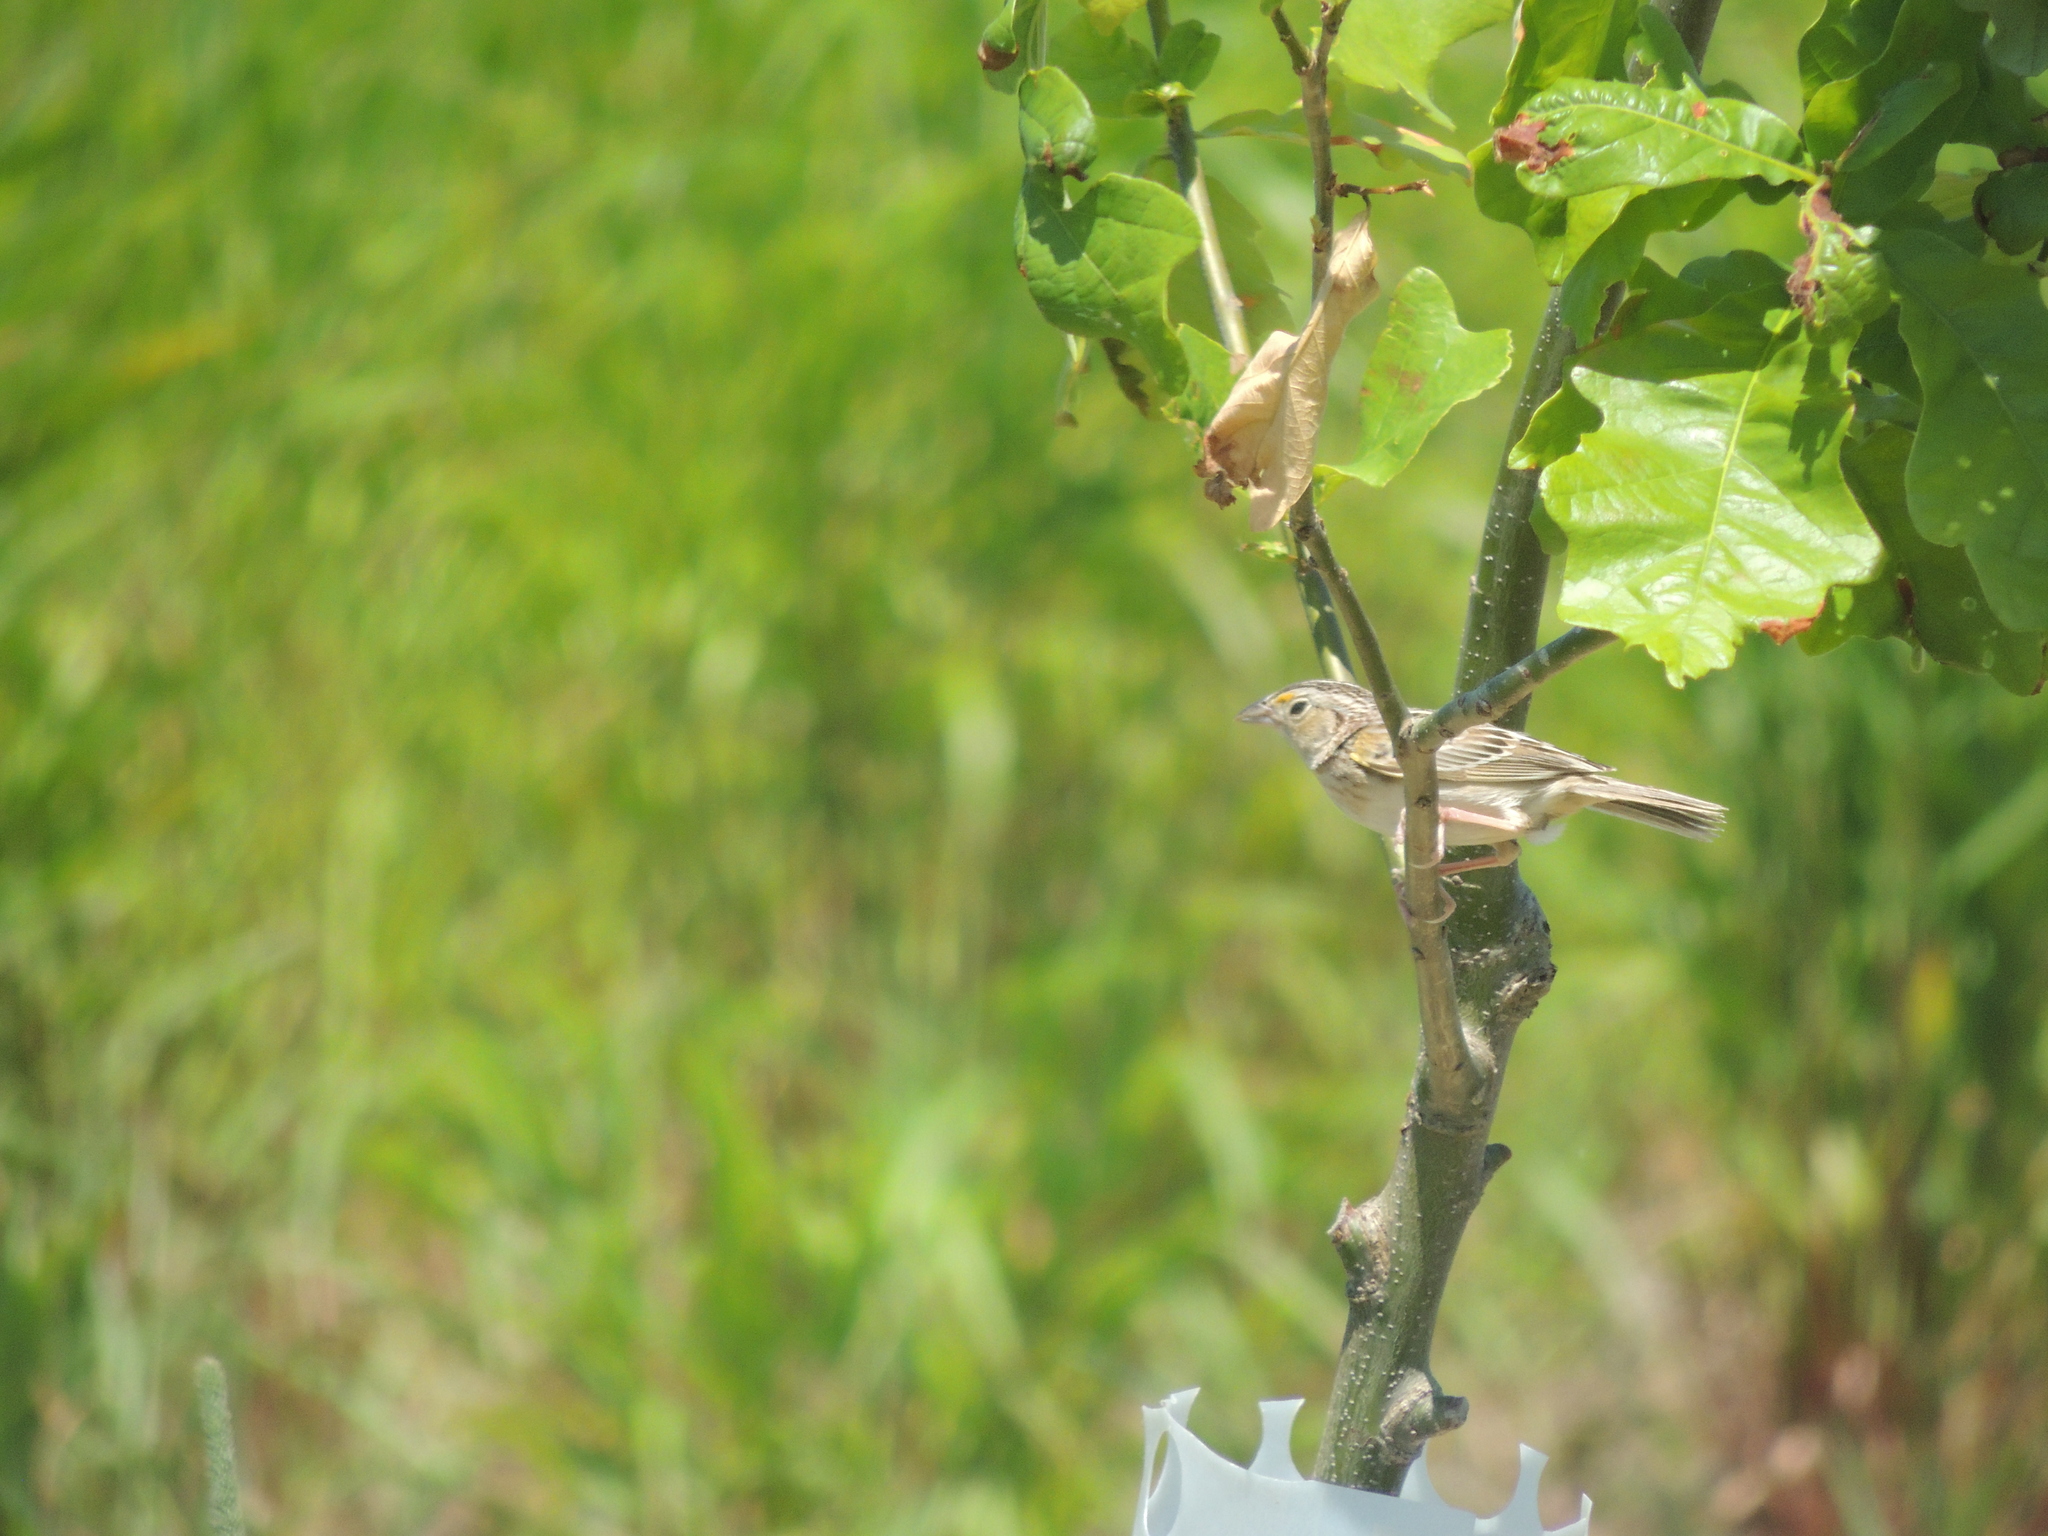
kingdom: Animalia
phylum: Chordata
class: Aves
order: Passeriformes
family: Passerellidae
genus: Ammodramus
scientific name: Ammodramus savannarum
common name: Grasshopper sparrow
